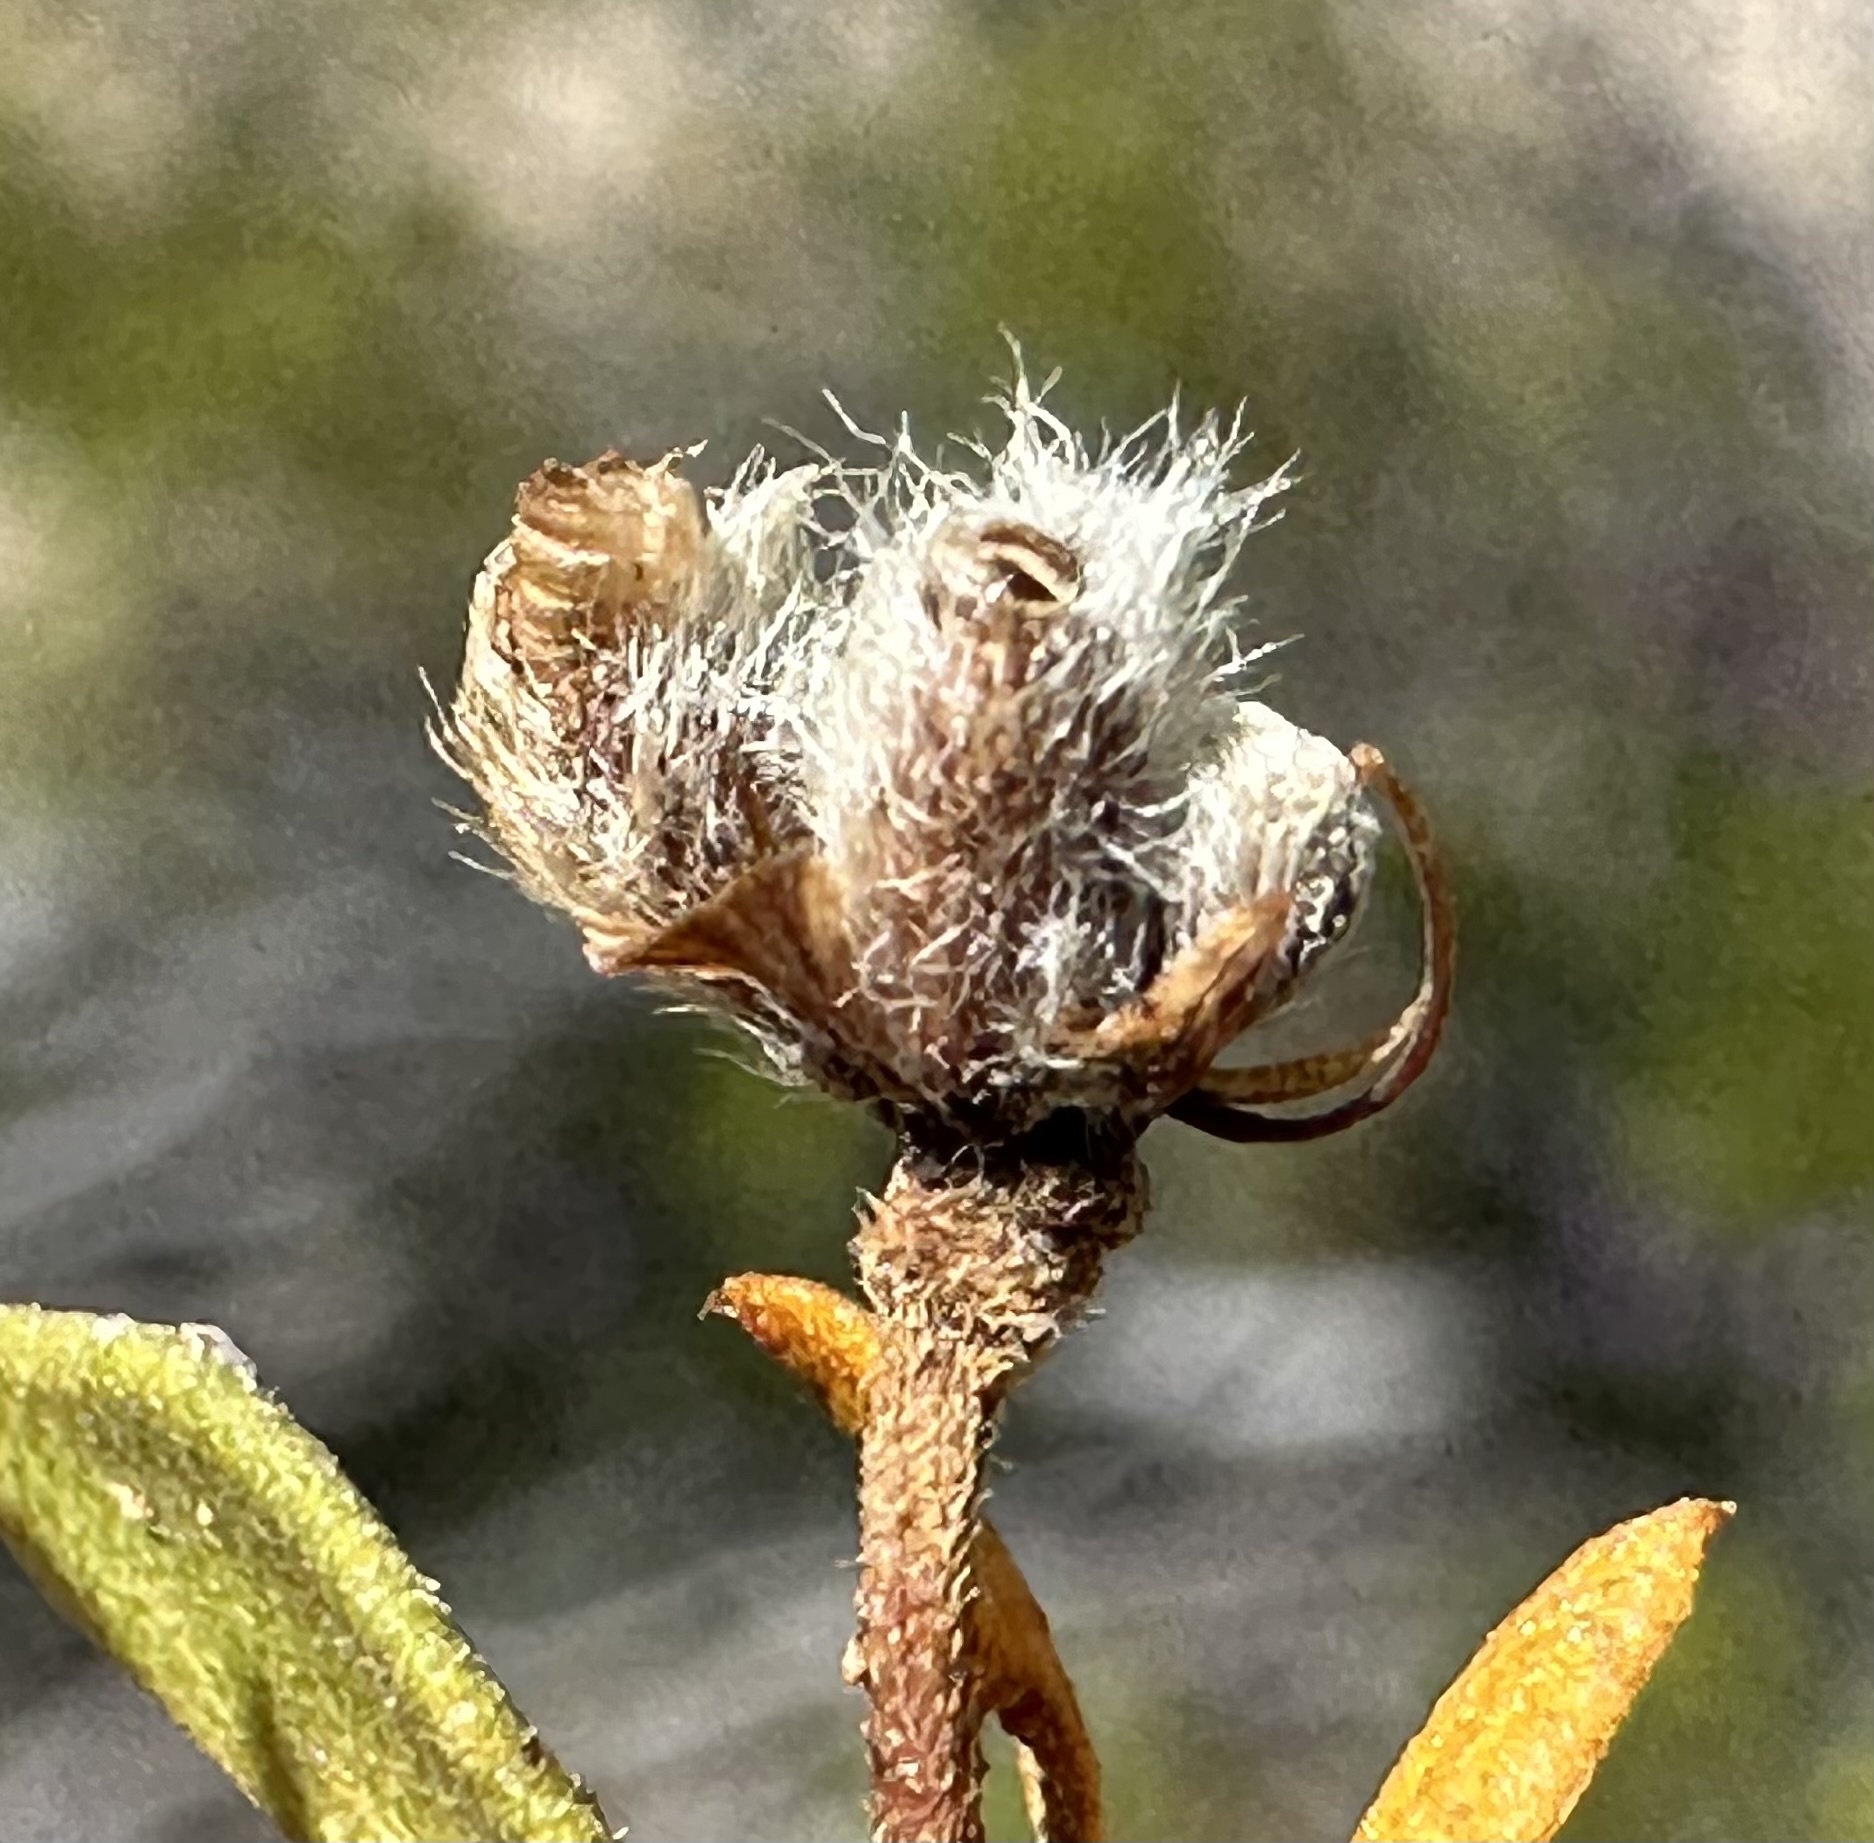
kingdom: Animalia
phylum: Arthropoda
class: Insecta
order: Diptera
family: Cecidomyiidae
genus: Asphondylia
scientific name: Asphondylia florea
